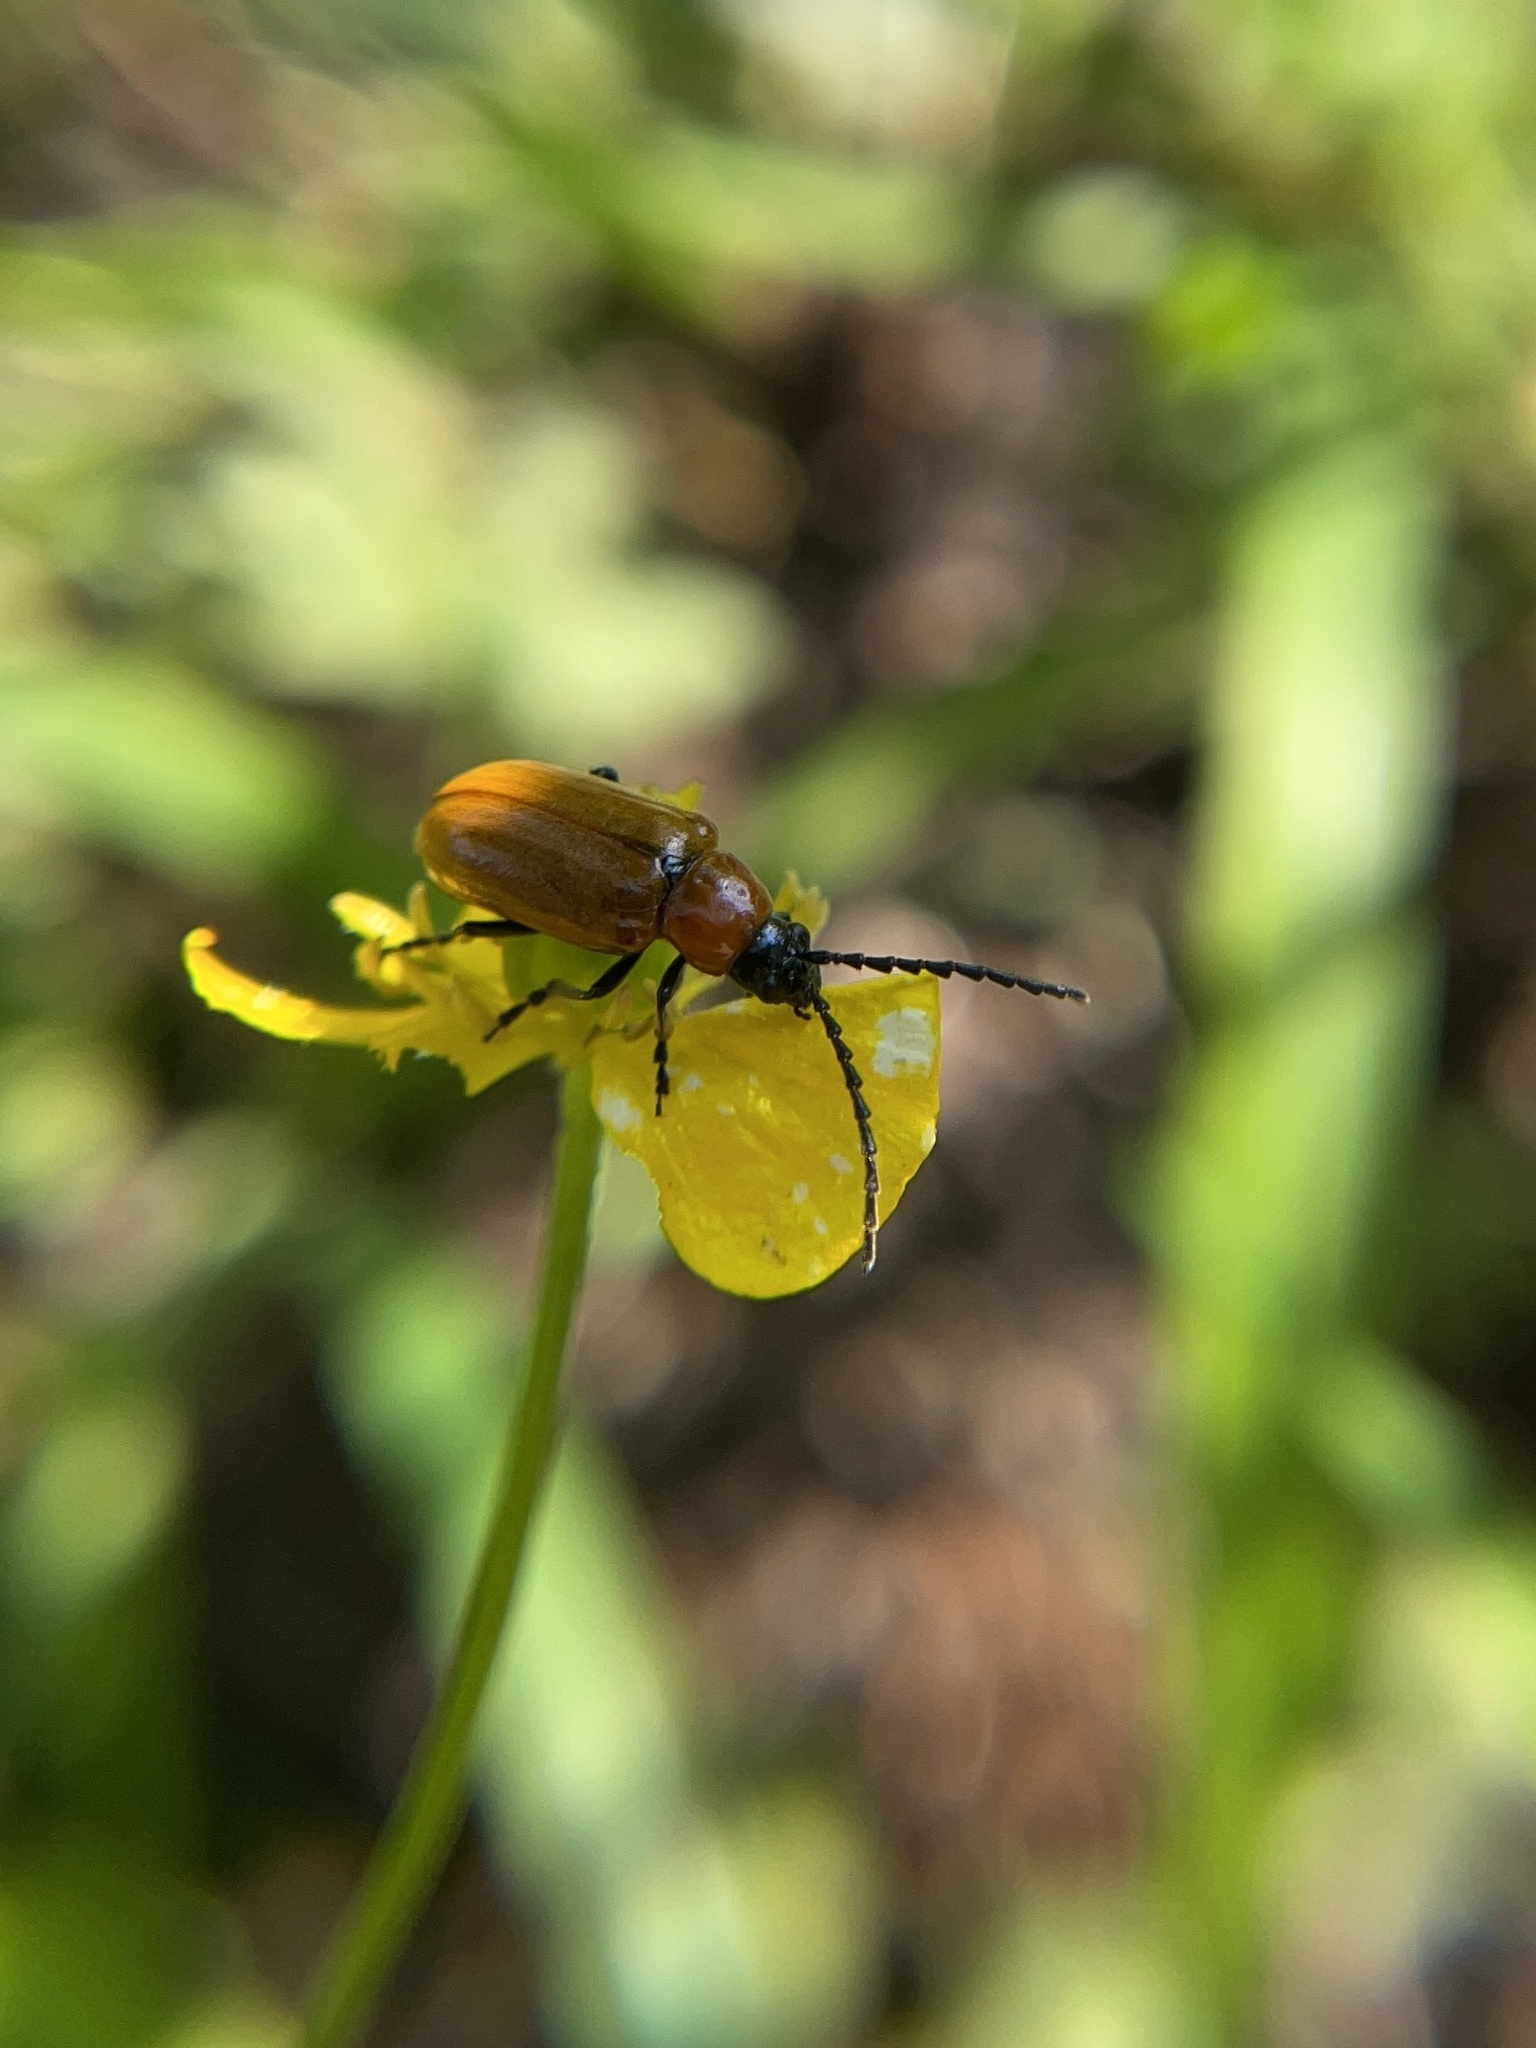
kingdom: Animalia
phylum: Arthropoda
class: Insecta
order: Coleoptera
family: Chrysomelidae
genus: Exosoma
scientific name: Exosoma lusitanicum
